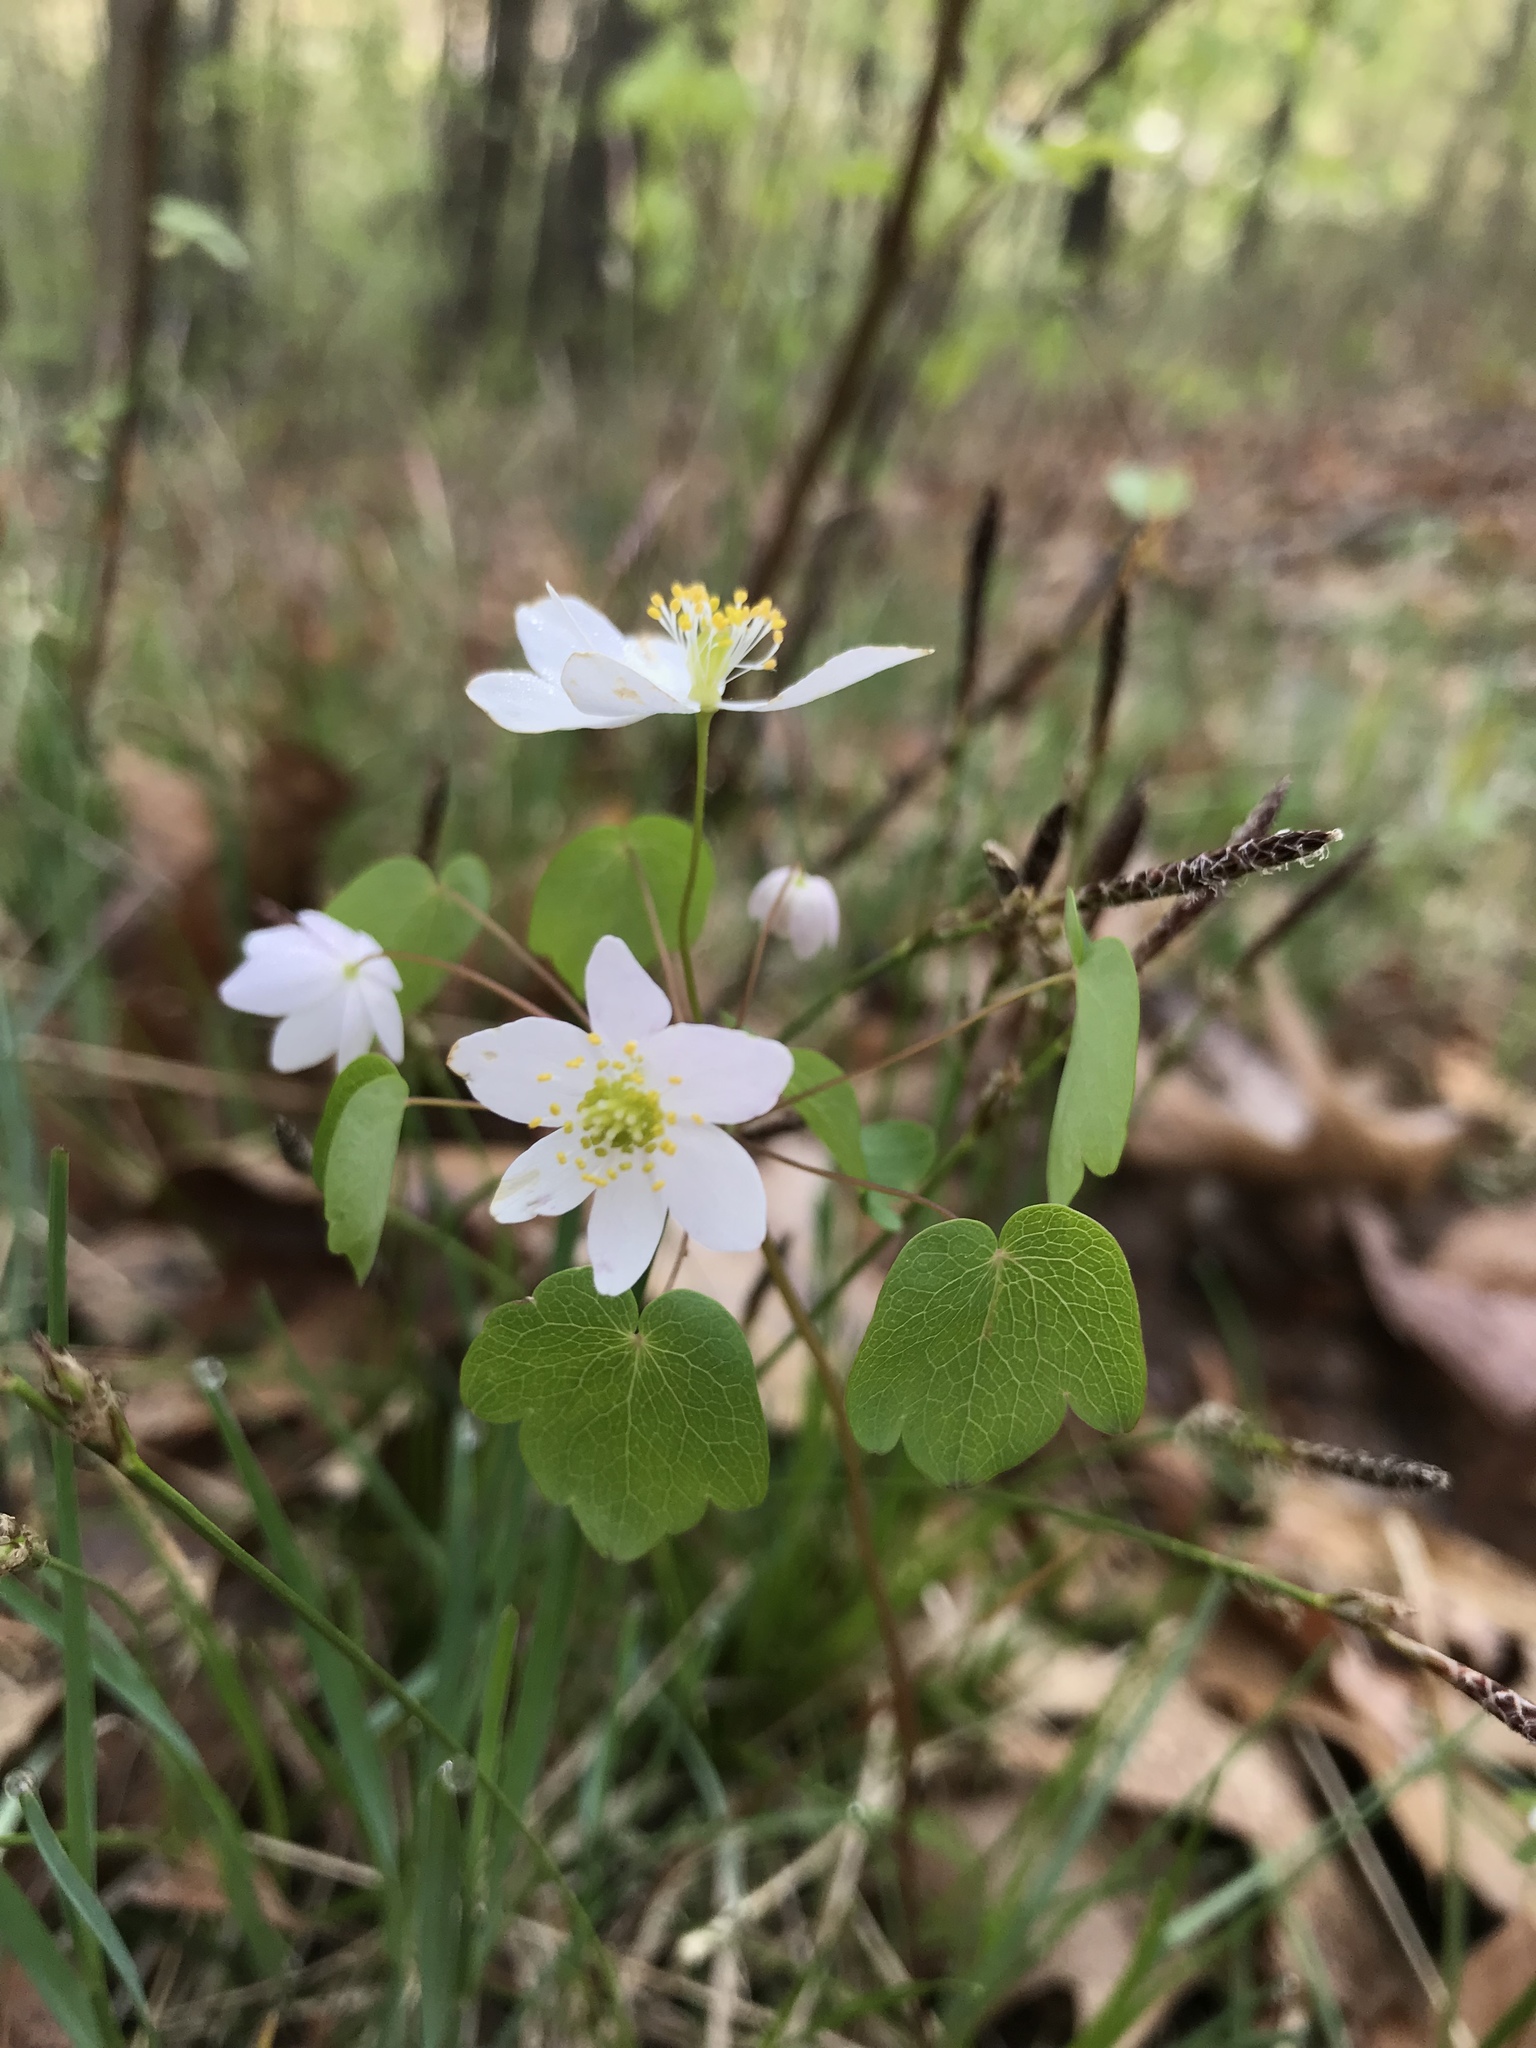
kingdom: Plantae
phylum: Tracheophyta
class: Magnoliopsida
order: Ranunculales
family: Ranunculaceae
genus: Thalictrum
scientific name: Thalictrum thalictroides
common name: Rue-anemone
